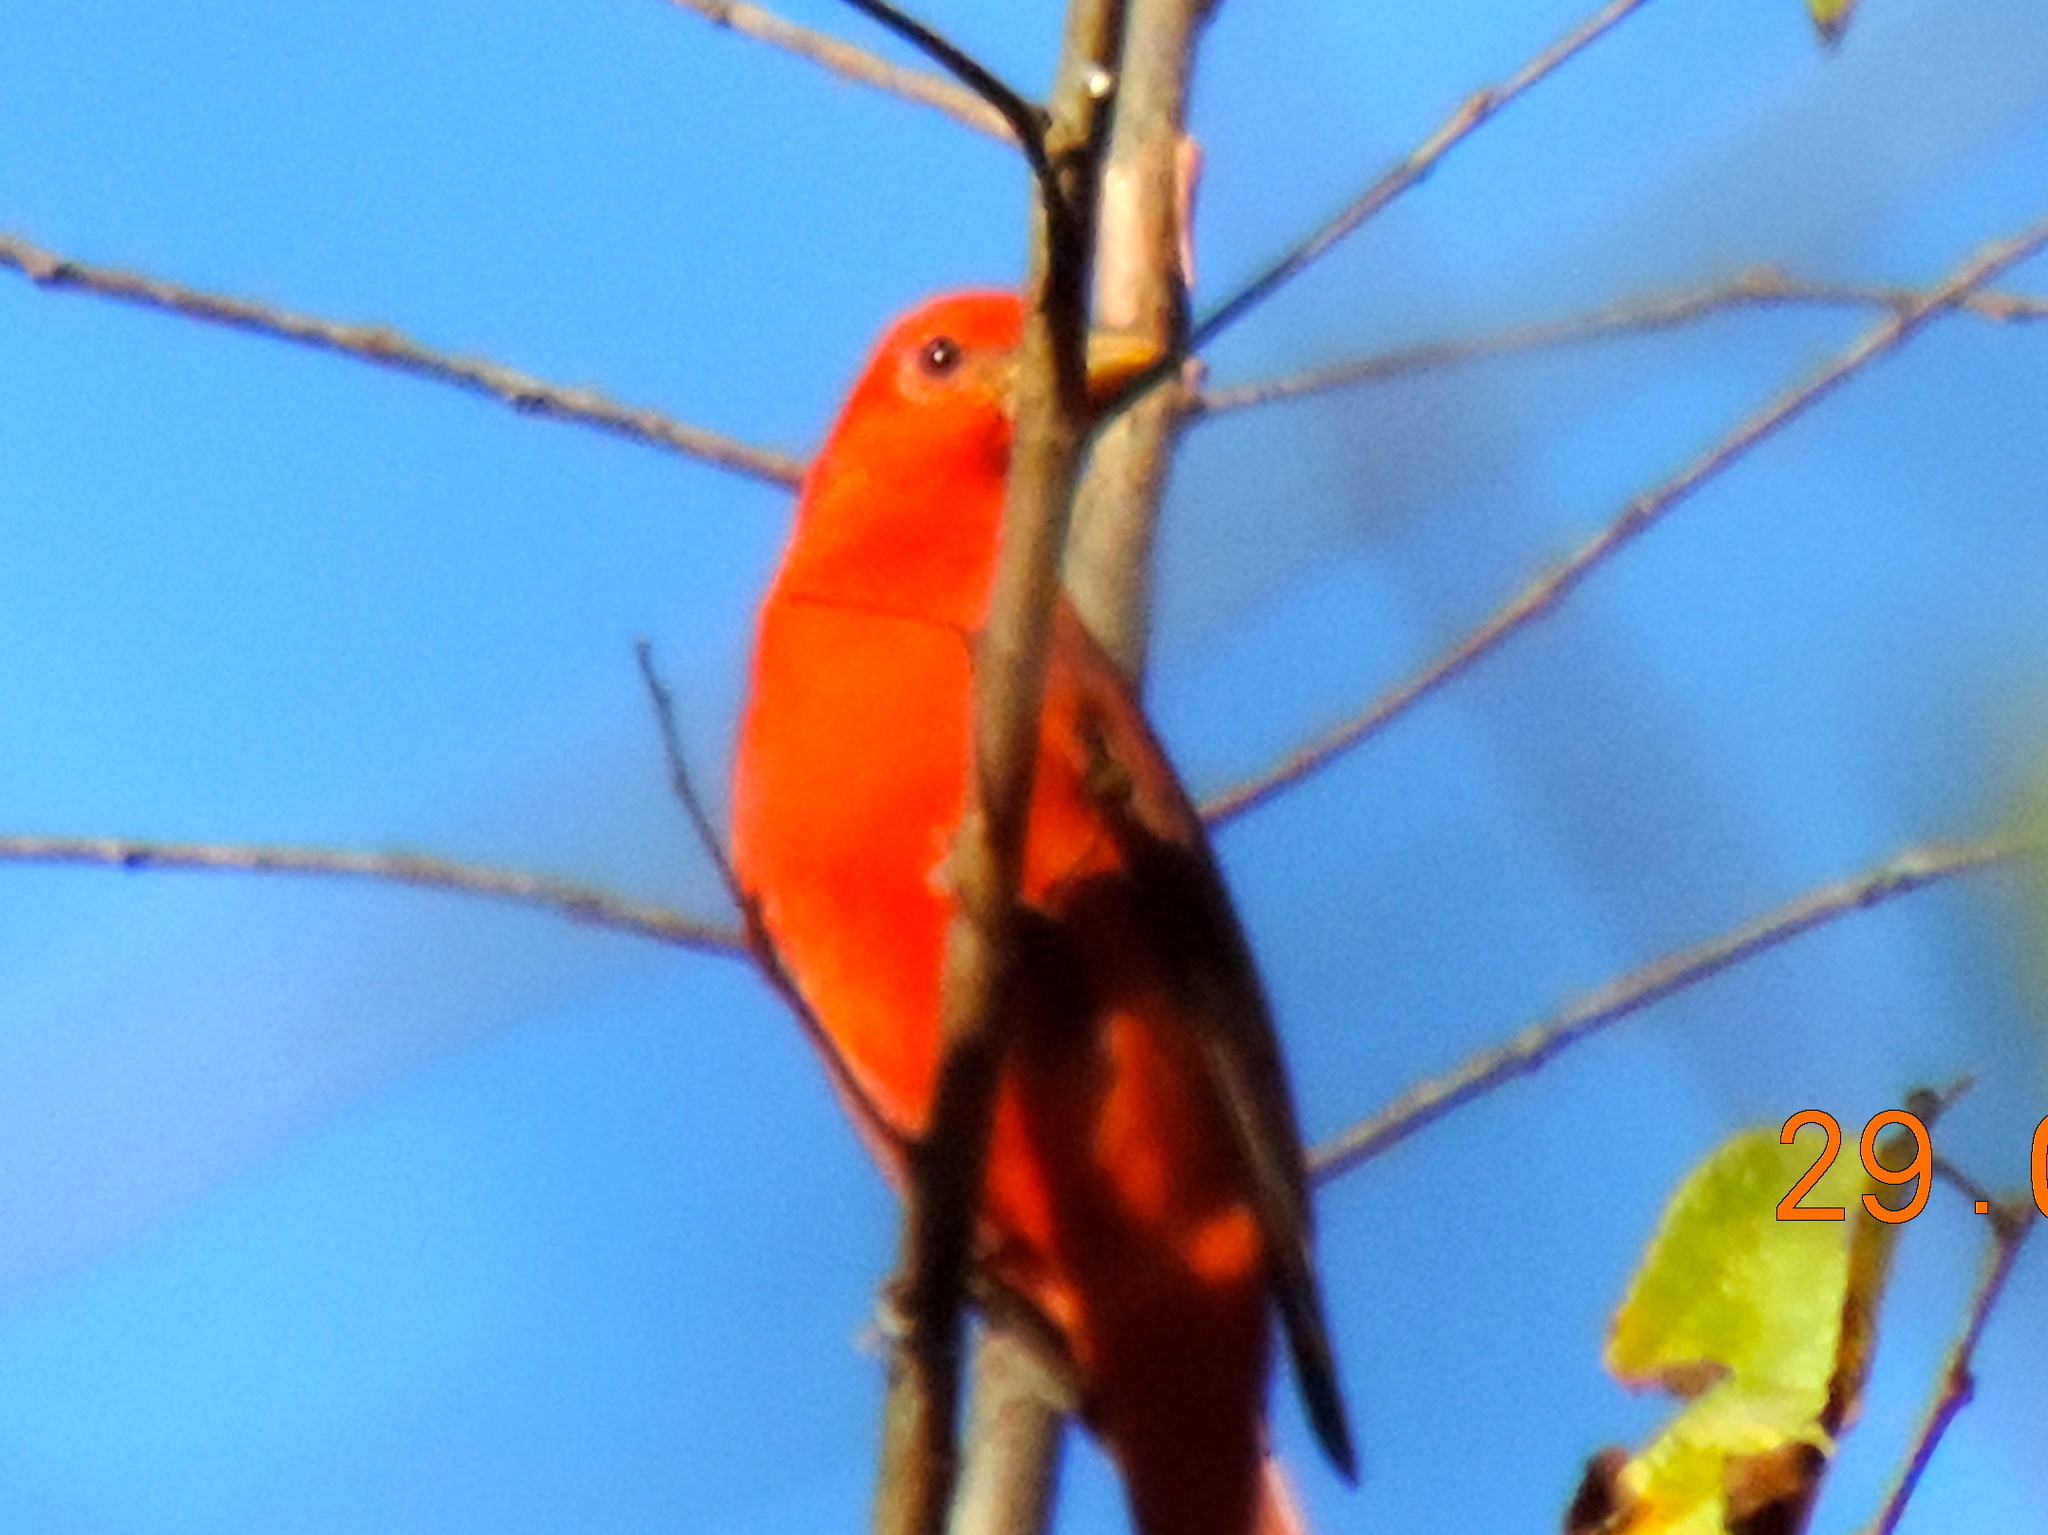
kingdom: Animalia
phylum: Chordata
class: Aves
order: Passeriformes
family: Cardinalidae
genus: Piranga
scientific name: Piranga rubra
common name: Summer tanager
